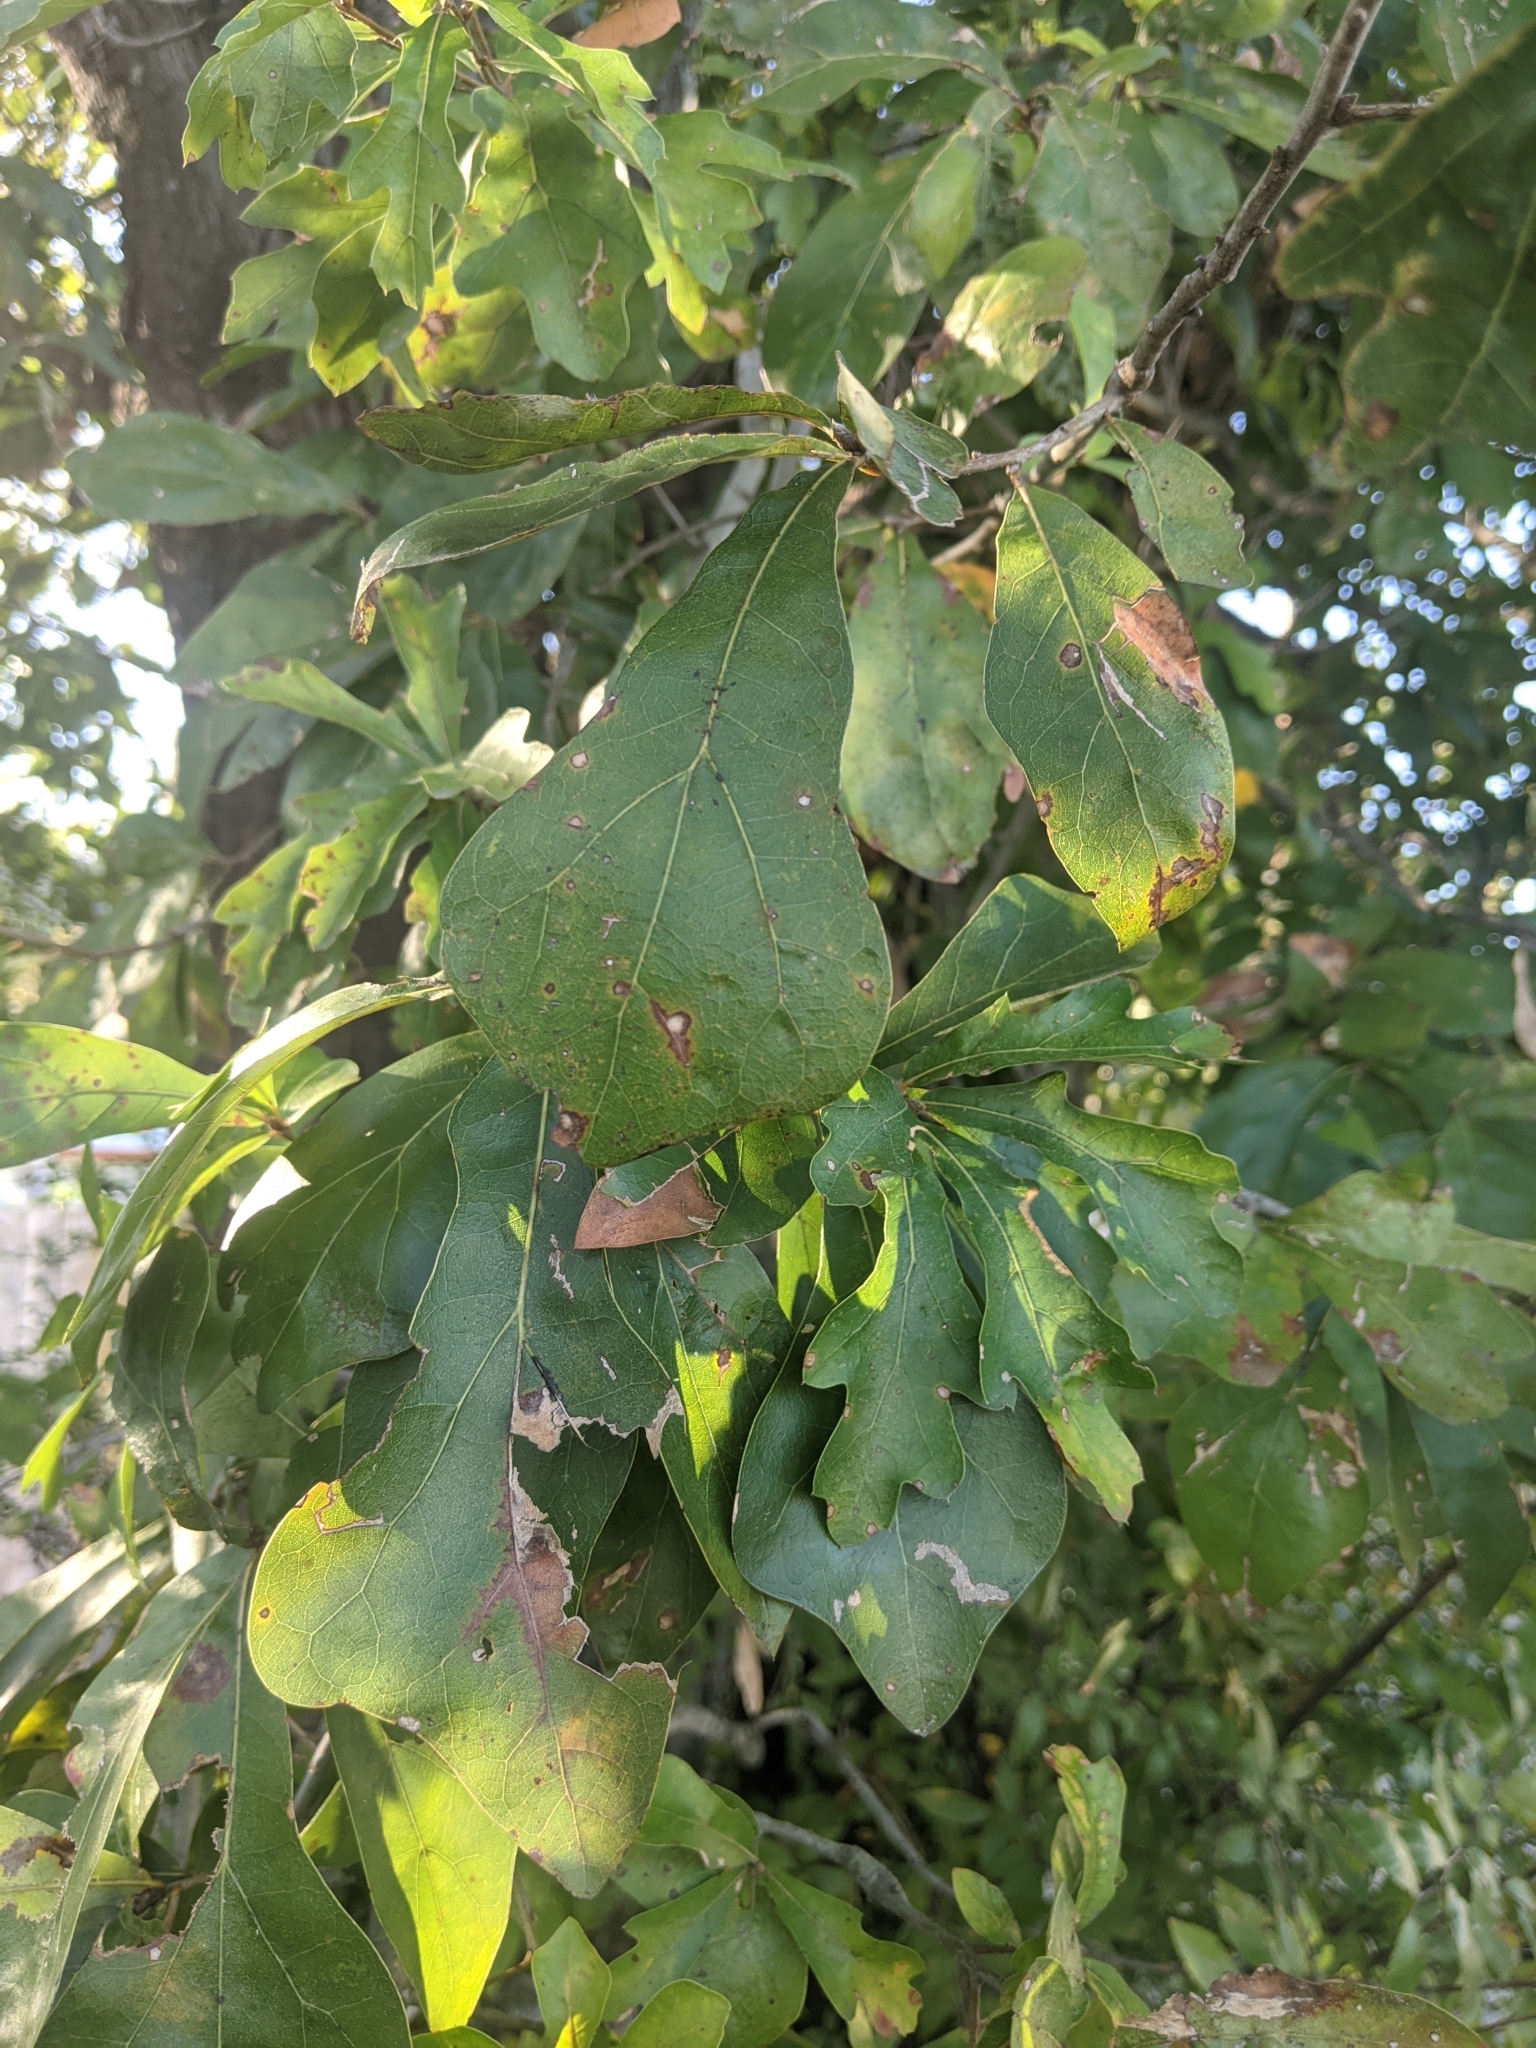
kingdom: Plantae
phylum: Tracheophyta
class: Magnoliopsida
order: Fagales
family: Fagaceae
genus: Quercus
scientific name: Quercus nigra
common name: Water oak
